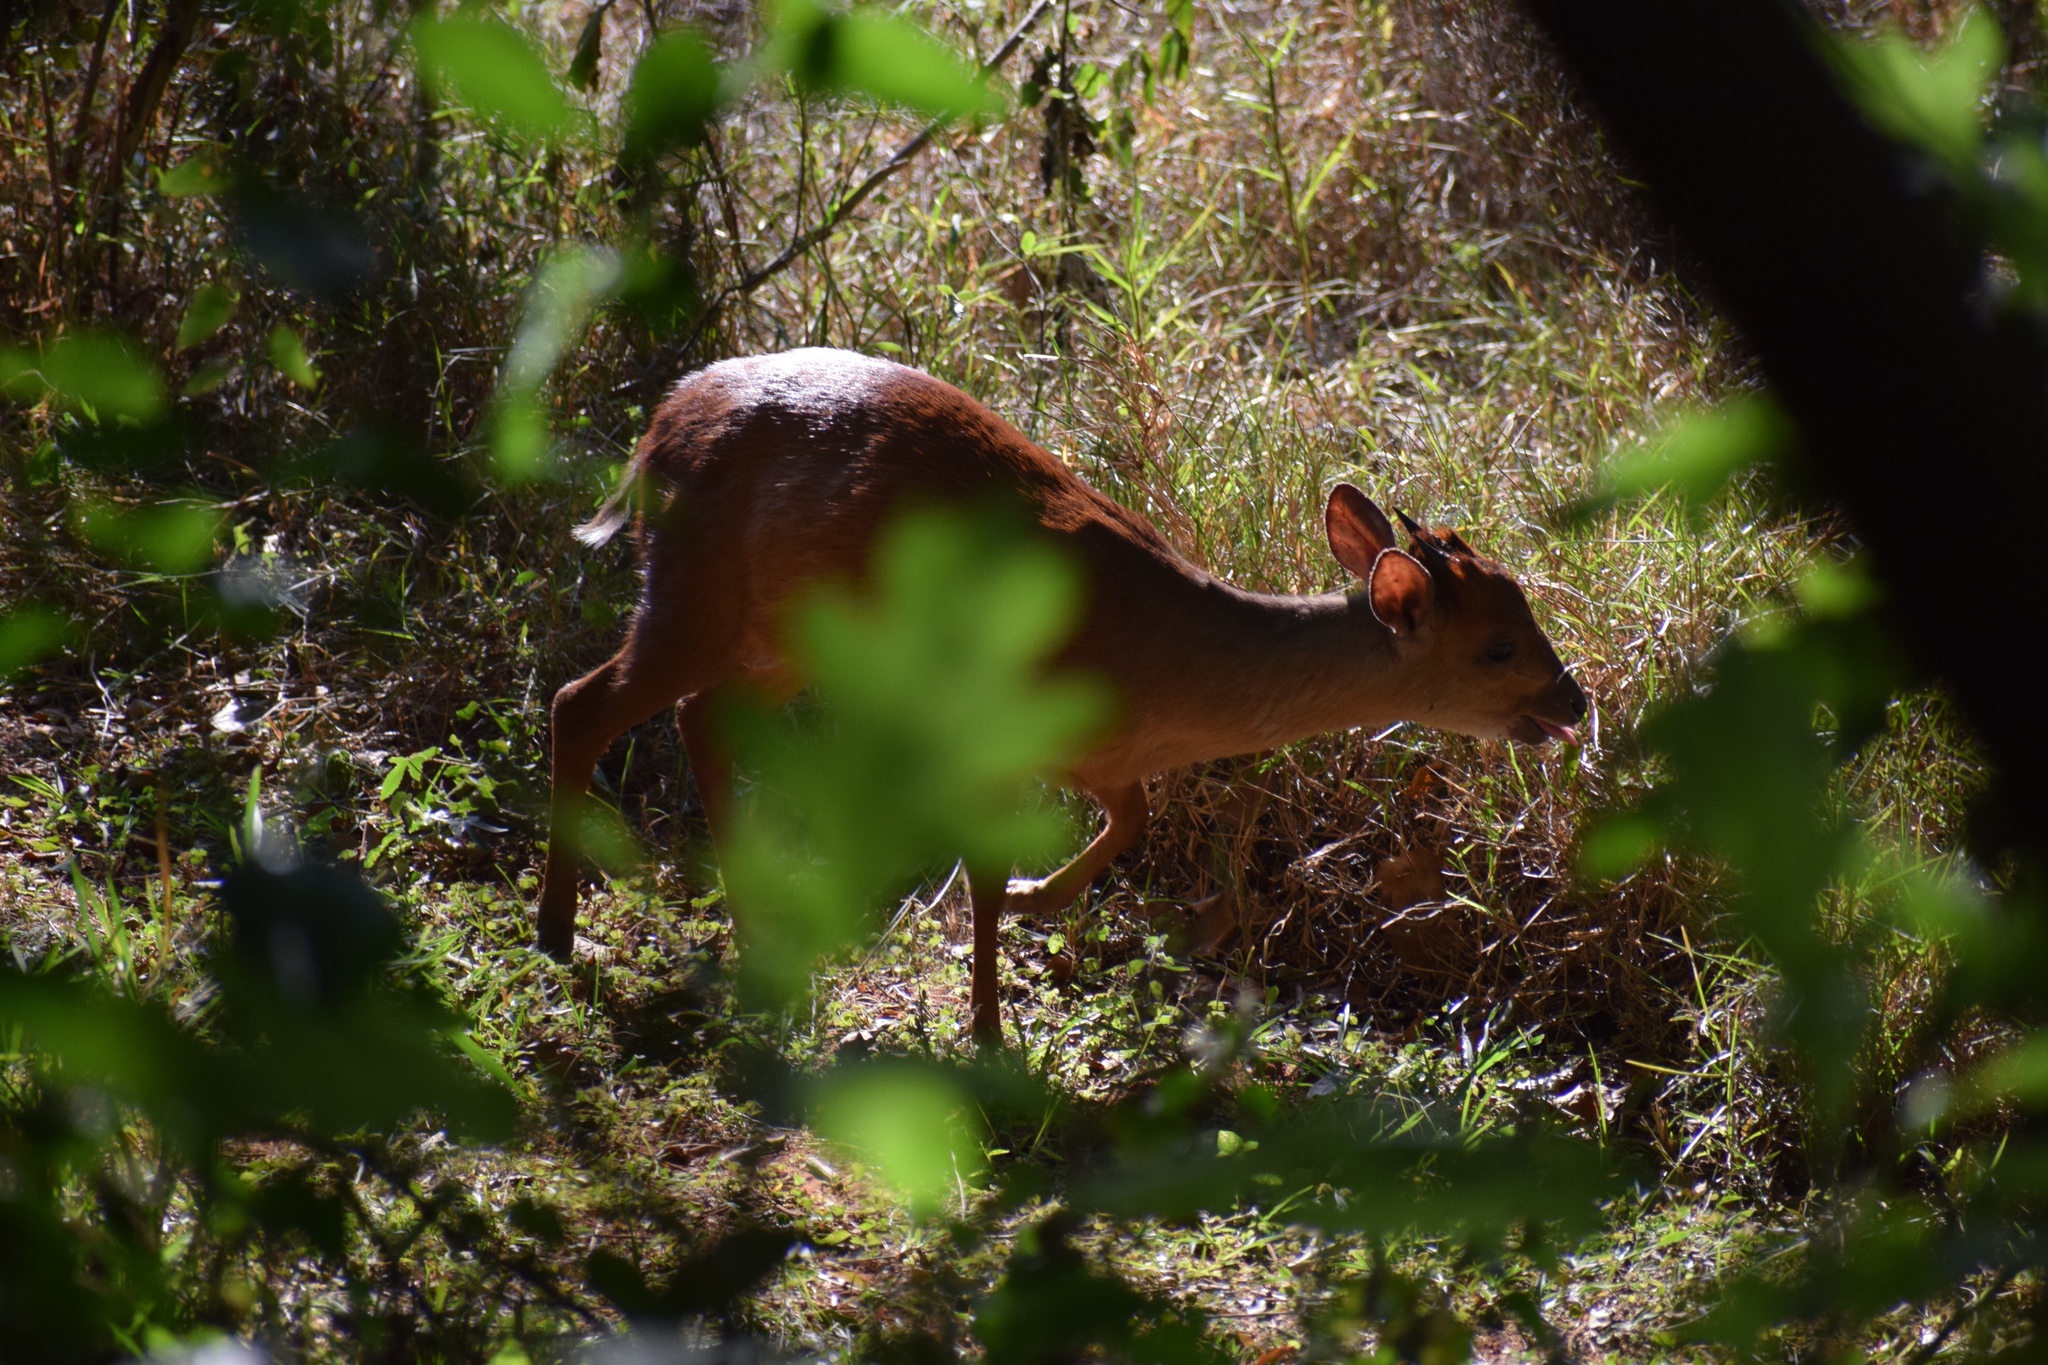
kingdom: Animalia
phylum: Chordata
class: Mammalia
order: Artiodactyla
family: Bovidae
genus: Cephalophus
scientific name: Cephalophus natalensis
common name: Red duiker
